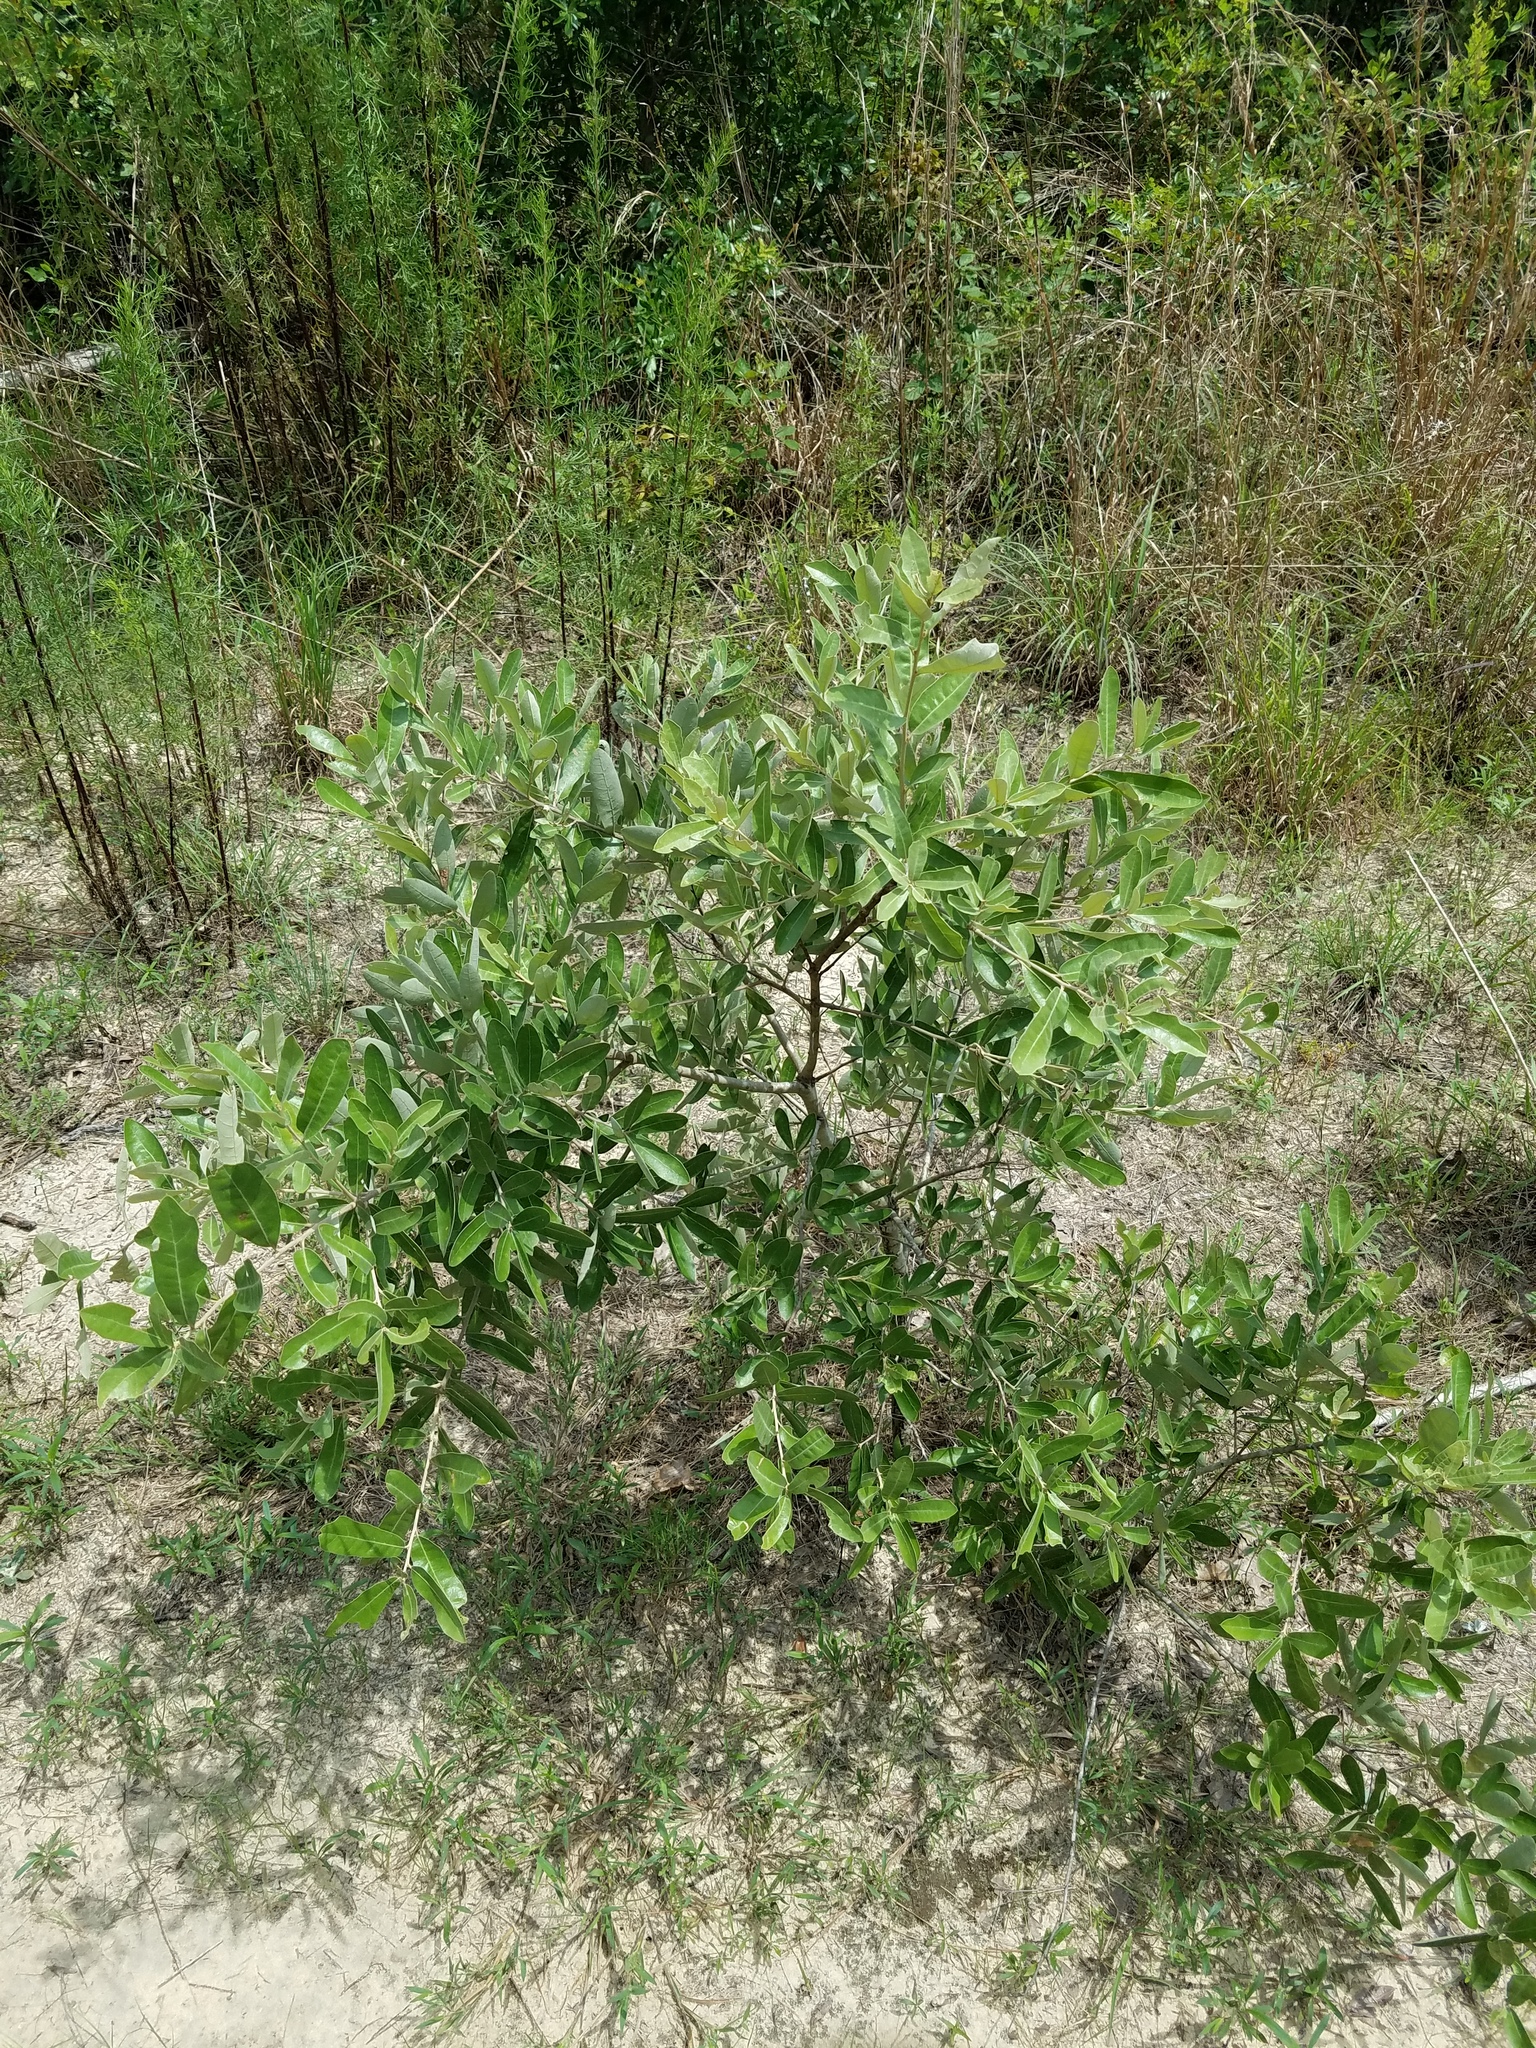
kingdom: Plantae
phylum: Tracheophyta
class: Magnoliopsida
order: Fagales
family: Fagaceae
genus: Quercus
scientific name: Quercus incana
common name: Bluejack oak
